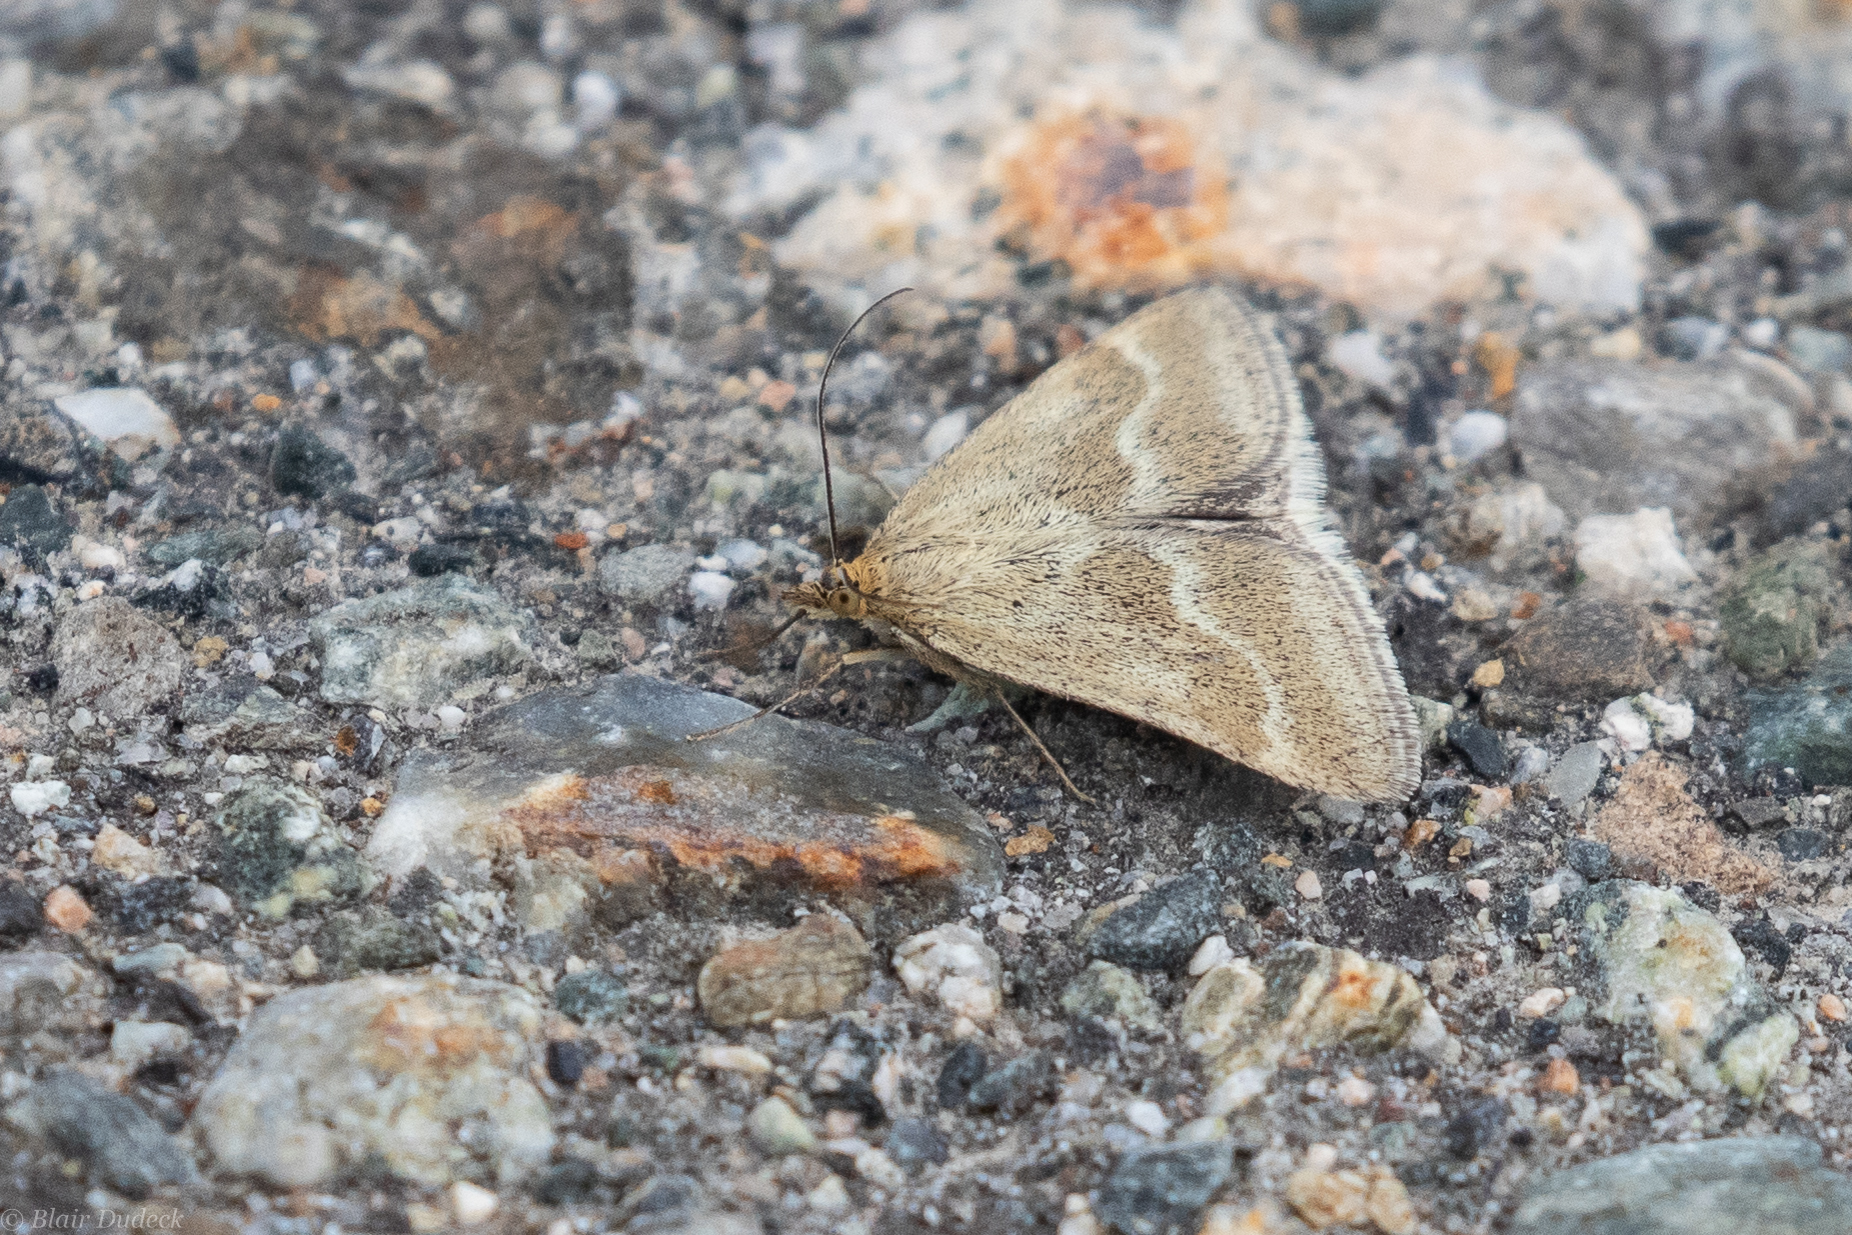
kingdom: Animalia
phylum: Arthropoda
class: Insecta
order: Lepidoptera
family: Crambidae
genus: Pyrausta
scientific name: Pyrausta unifascialis
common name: One-banded pyrausta
